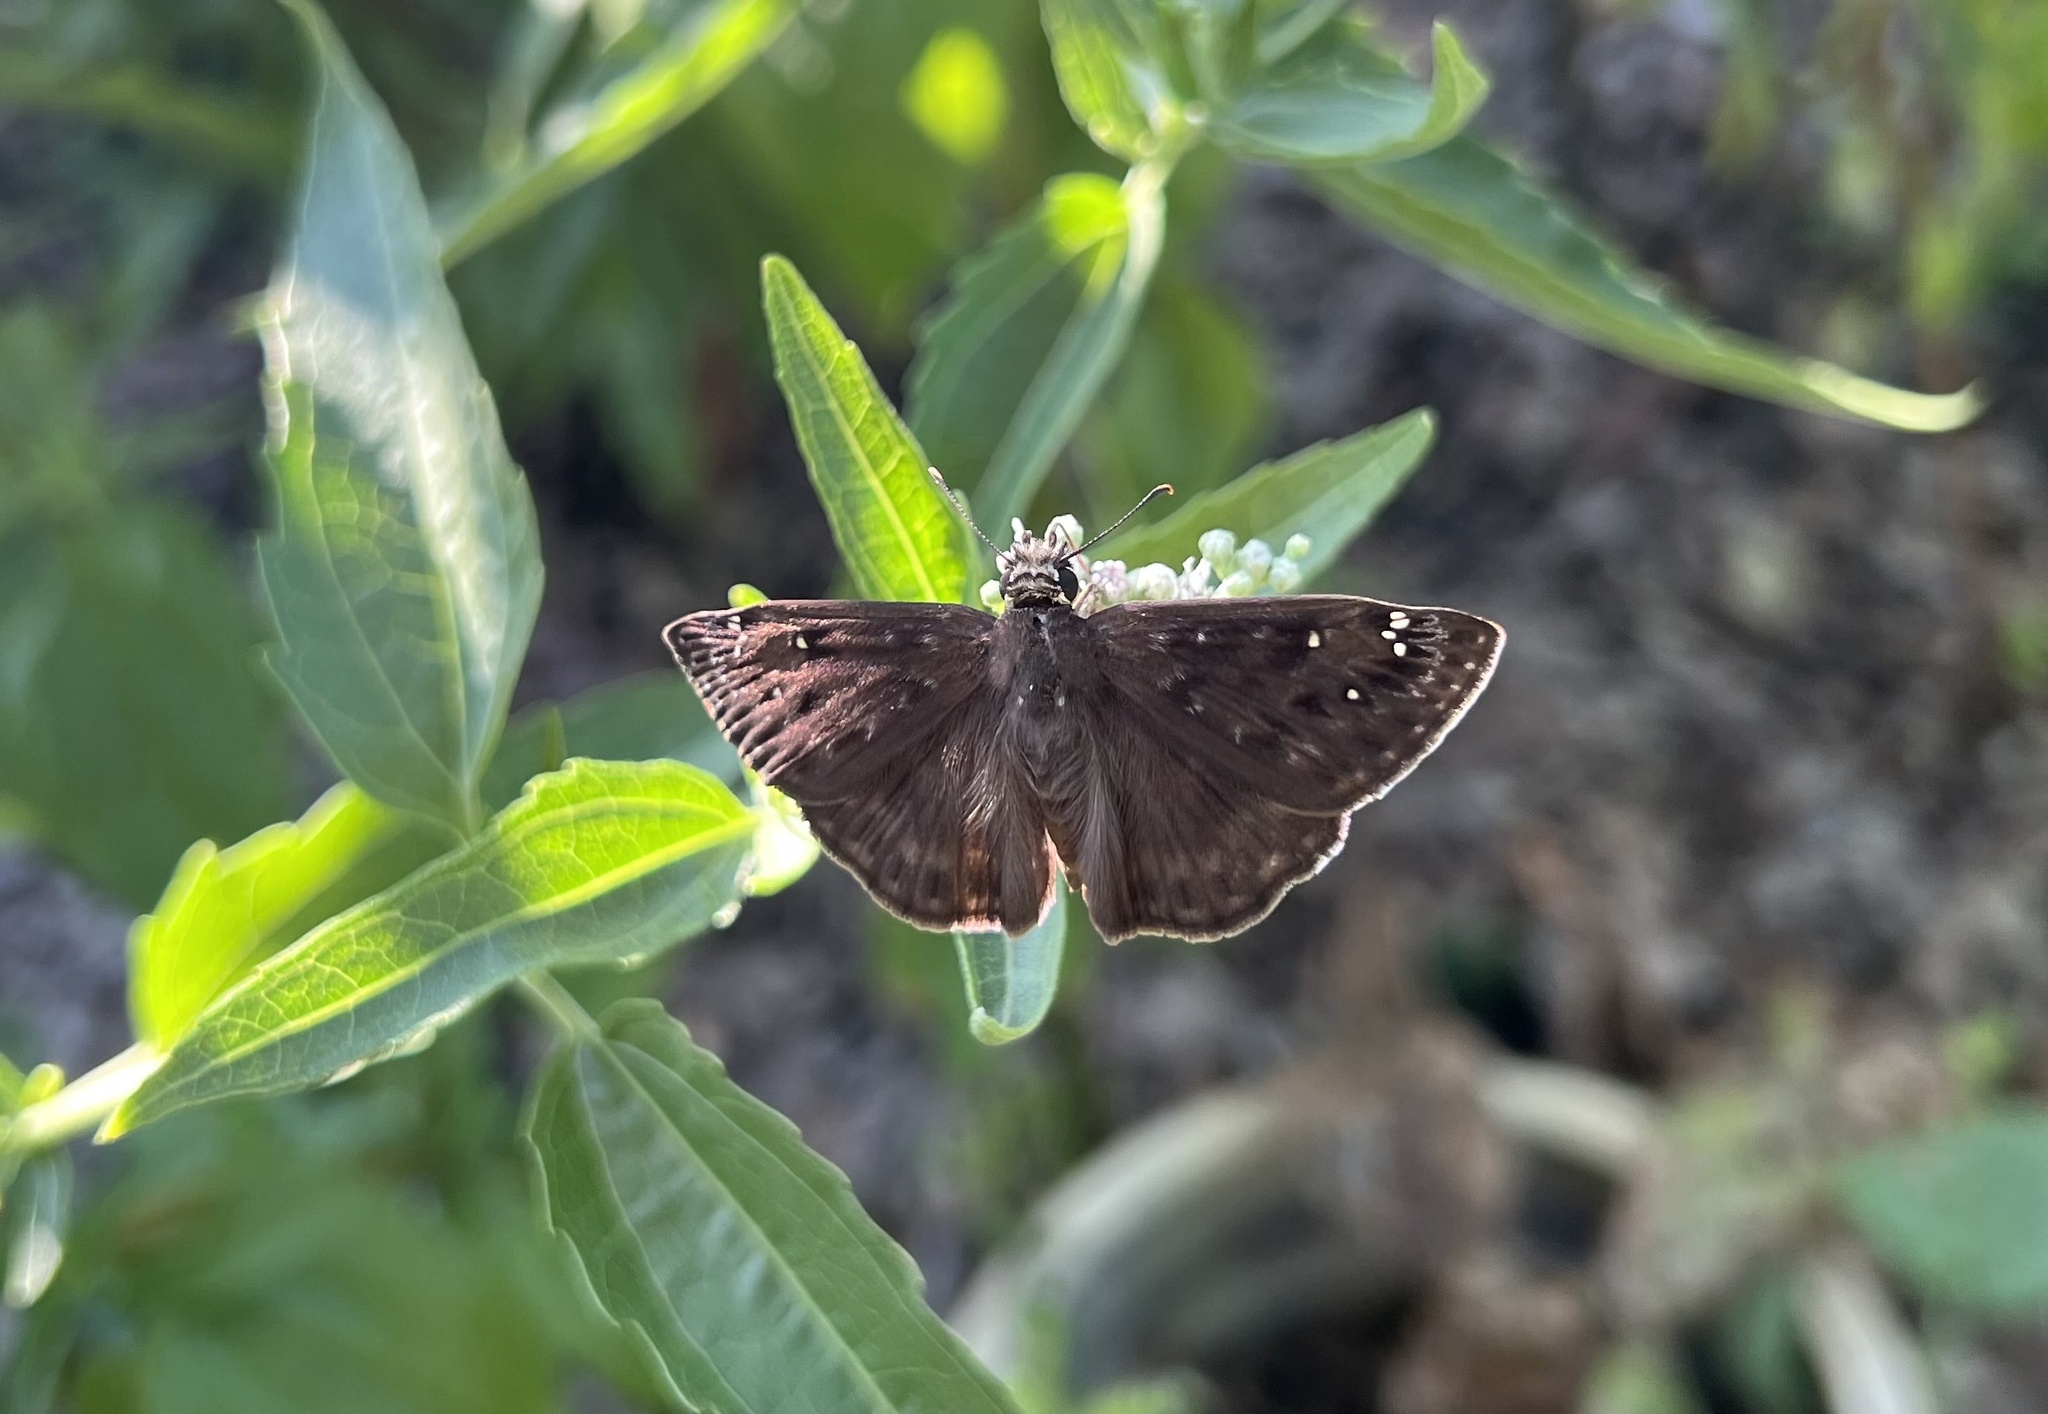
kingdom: Animalia
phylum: Arthropoda
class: Insecta
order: Lepidoptera
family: Hesperiidae
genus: Erynnis
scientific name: Erynnis horatius
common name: Horace's duskywing
